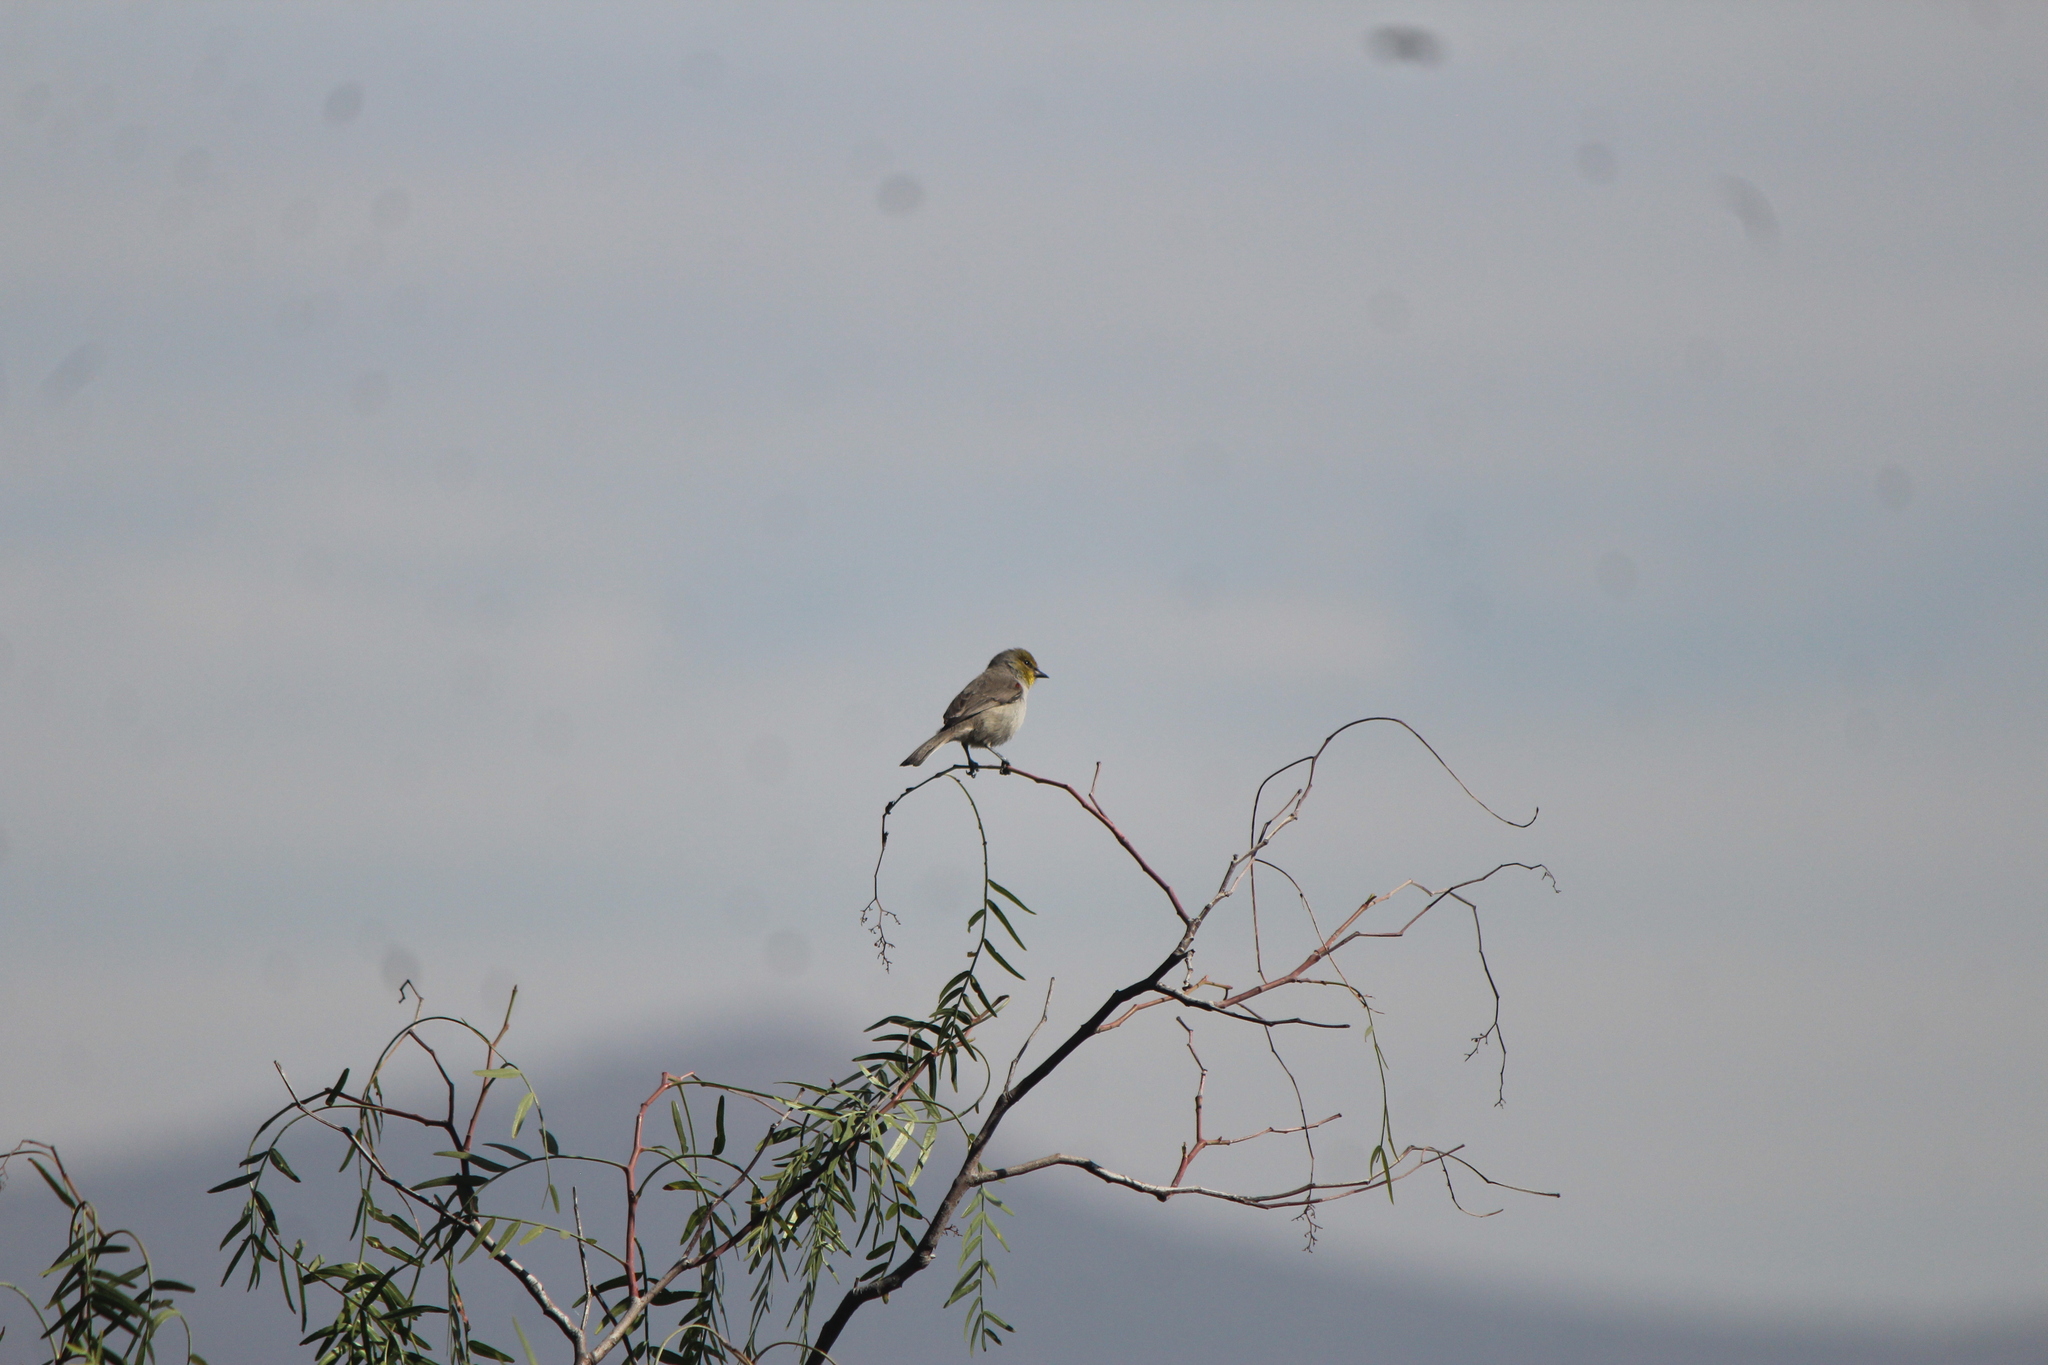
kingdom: Animalia
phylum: Chordata
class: Aves
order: Passeriformes
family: Remizidae
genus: Auriparus
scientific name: Auriparus flaviceps
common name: Verdin
